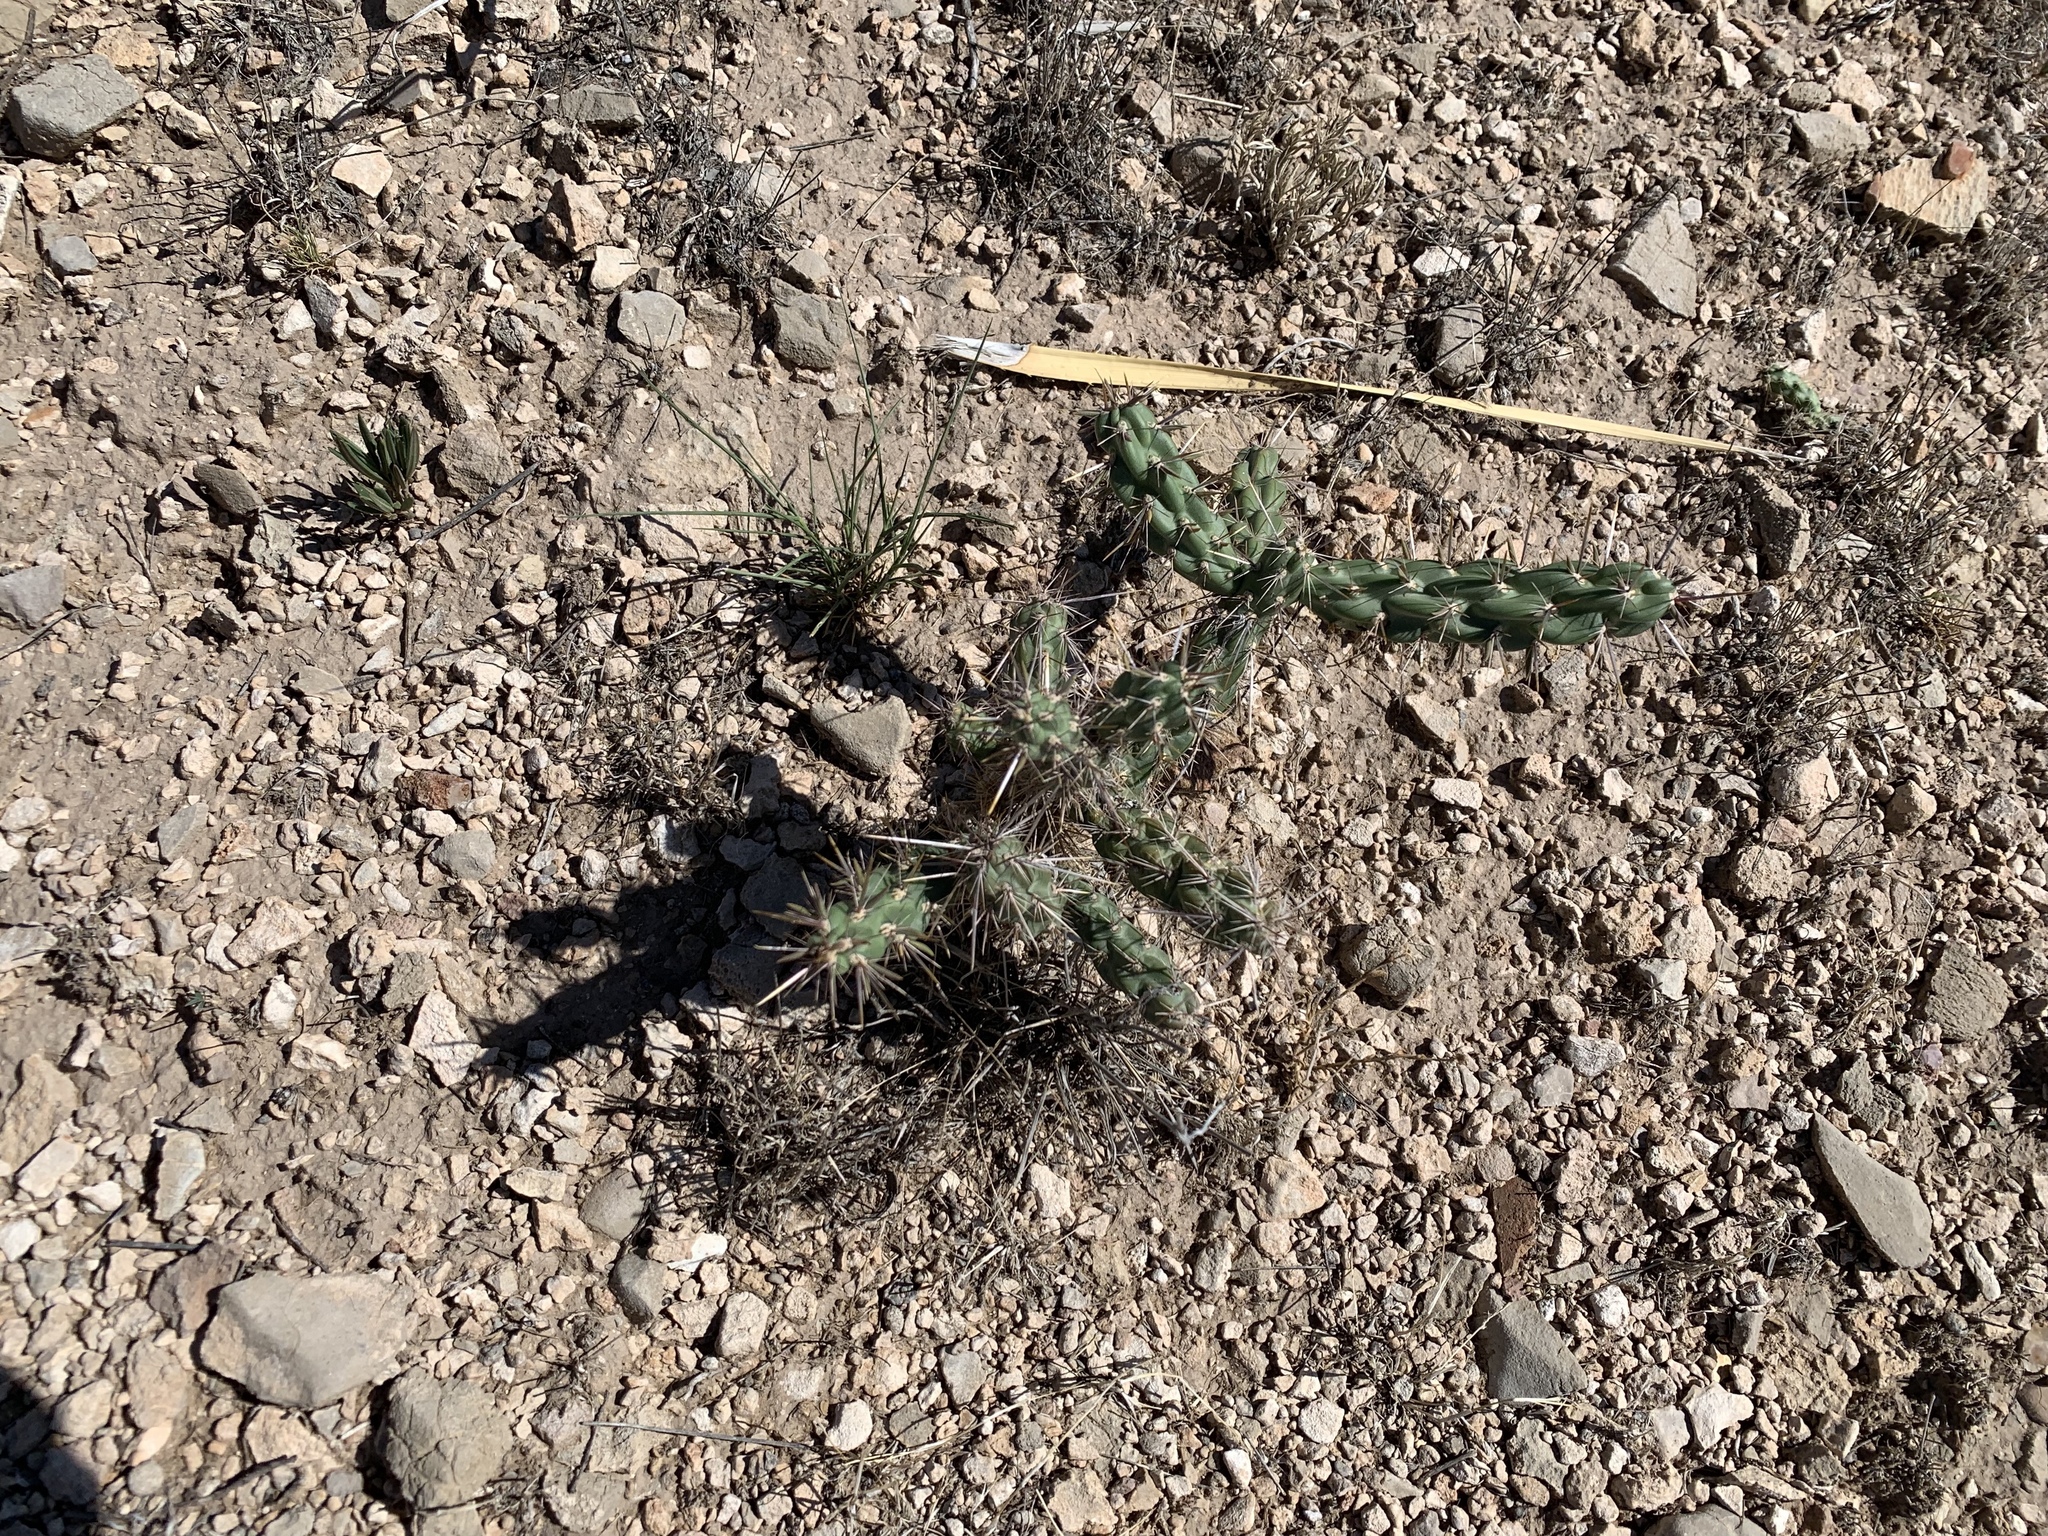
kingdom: Plantae
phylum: Tracheophyta
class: Magnoliopsida
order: Caryophyllales
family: Cactaceae
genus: Cylindropuntia
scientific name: Cylindropuntia imbricata
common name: Candelabrum cactus
